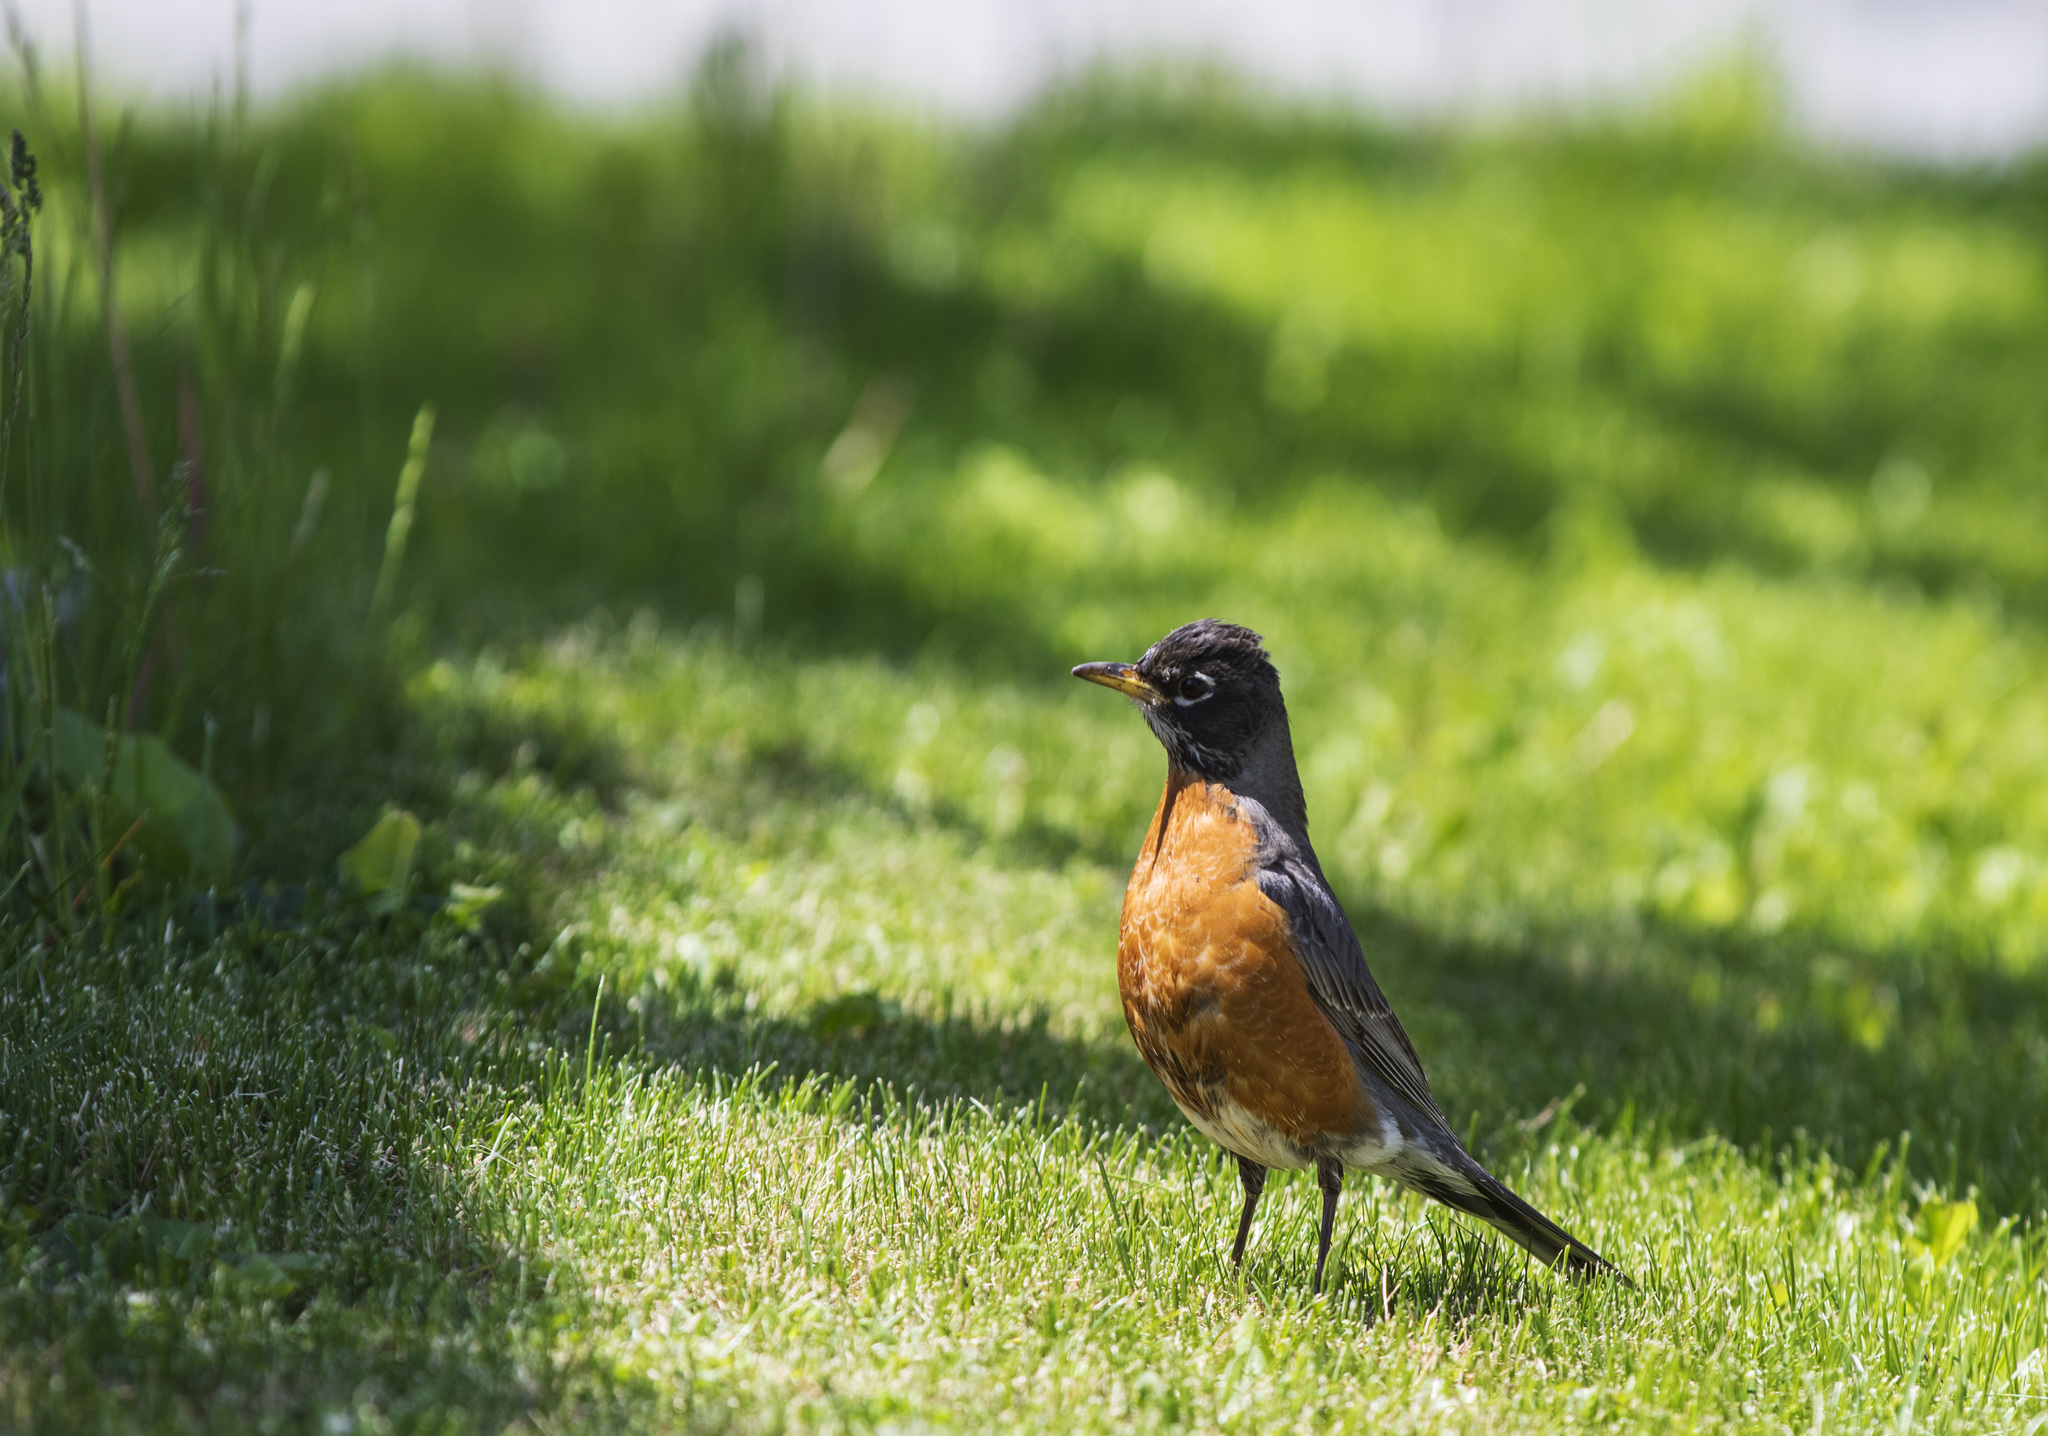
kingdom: Animalia
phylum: Chordata
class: Aves
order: Passeriformes
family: Turdidae
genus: Turdus
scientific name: Turdus migratorius
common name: American robin
